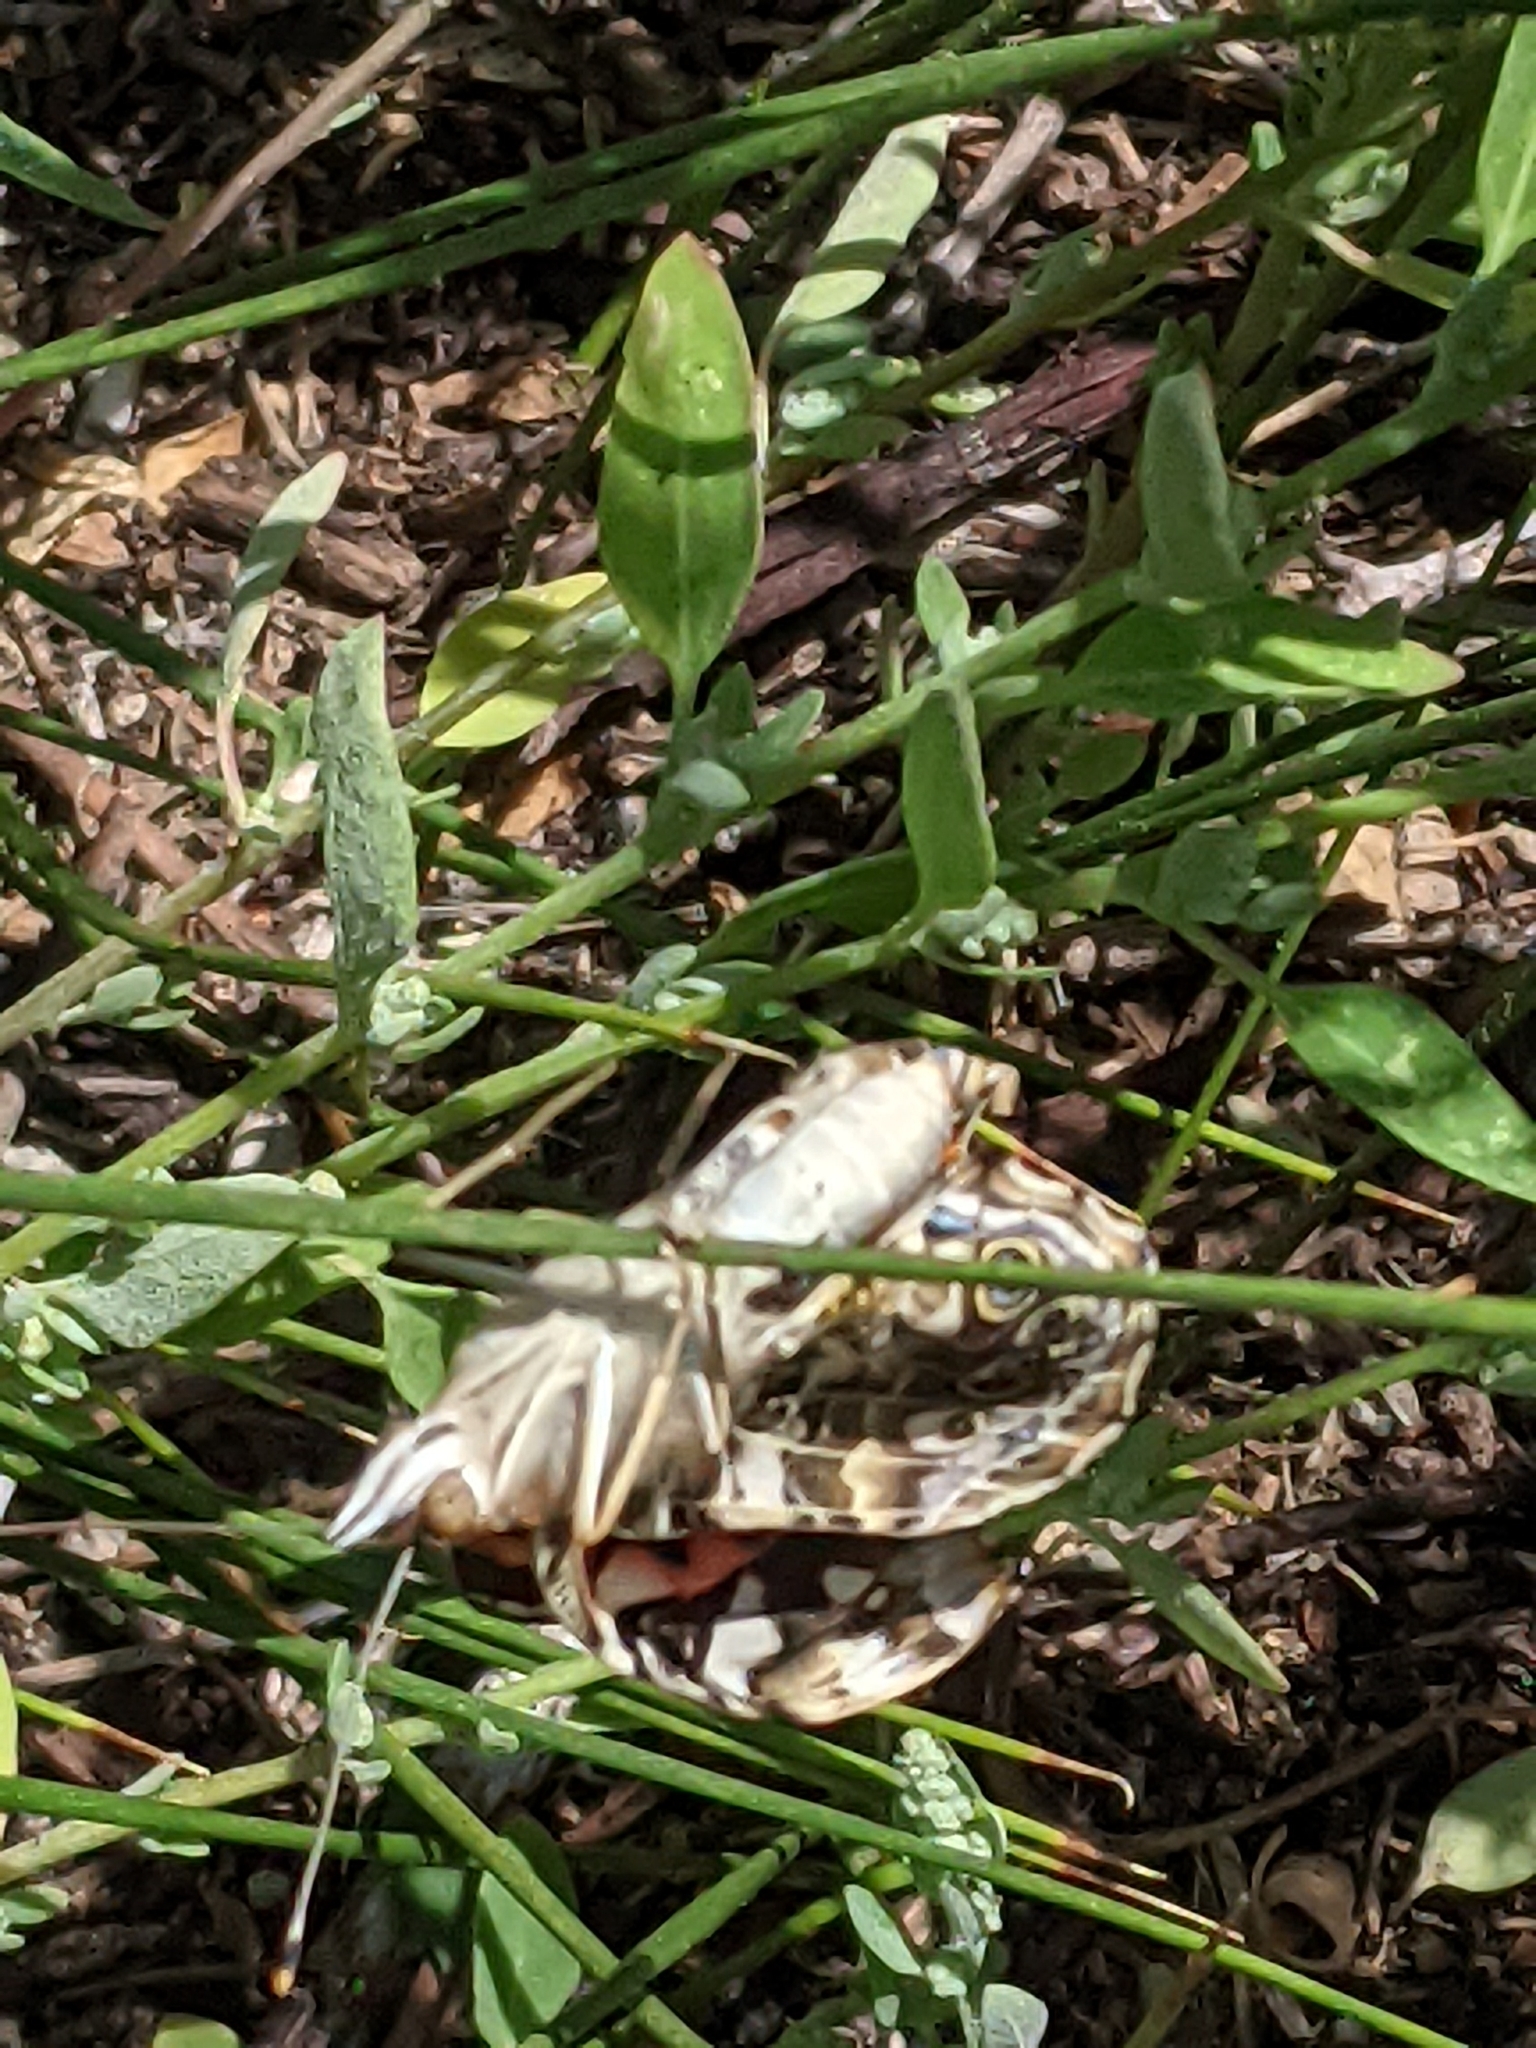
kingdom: Animalia
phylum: Arthropoda
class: Insecta
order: Lepidoptera
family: Nymphalidae
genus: Vanessa
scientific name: Vanessa cardui
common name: Painted lady
